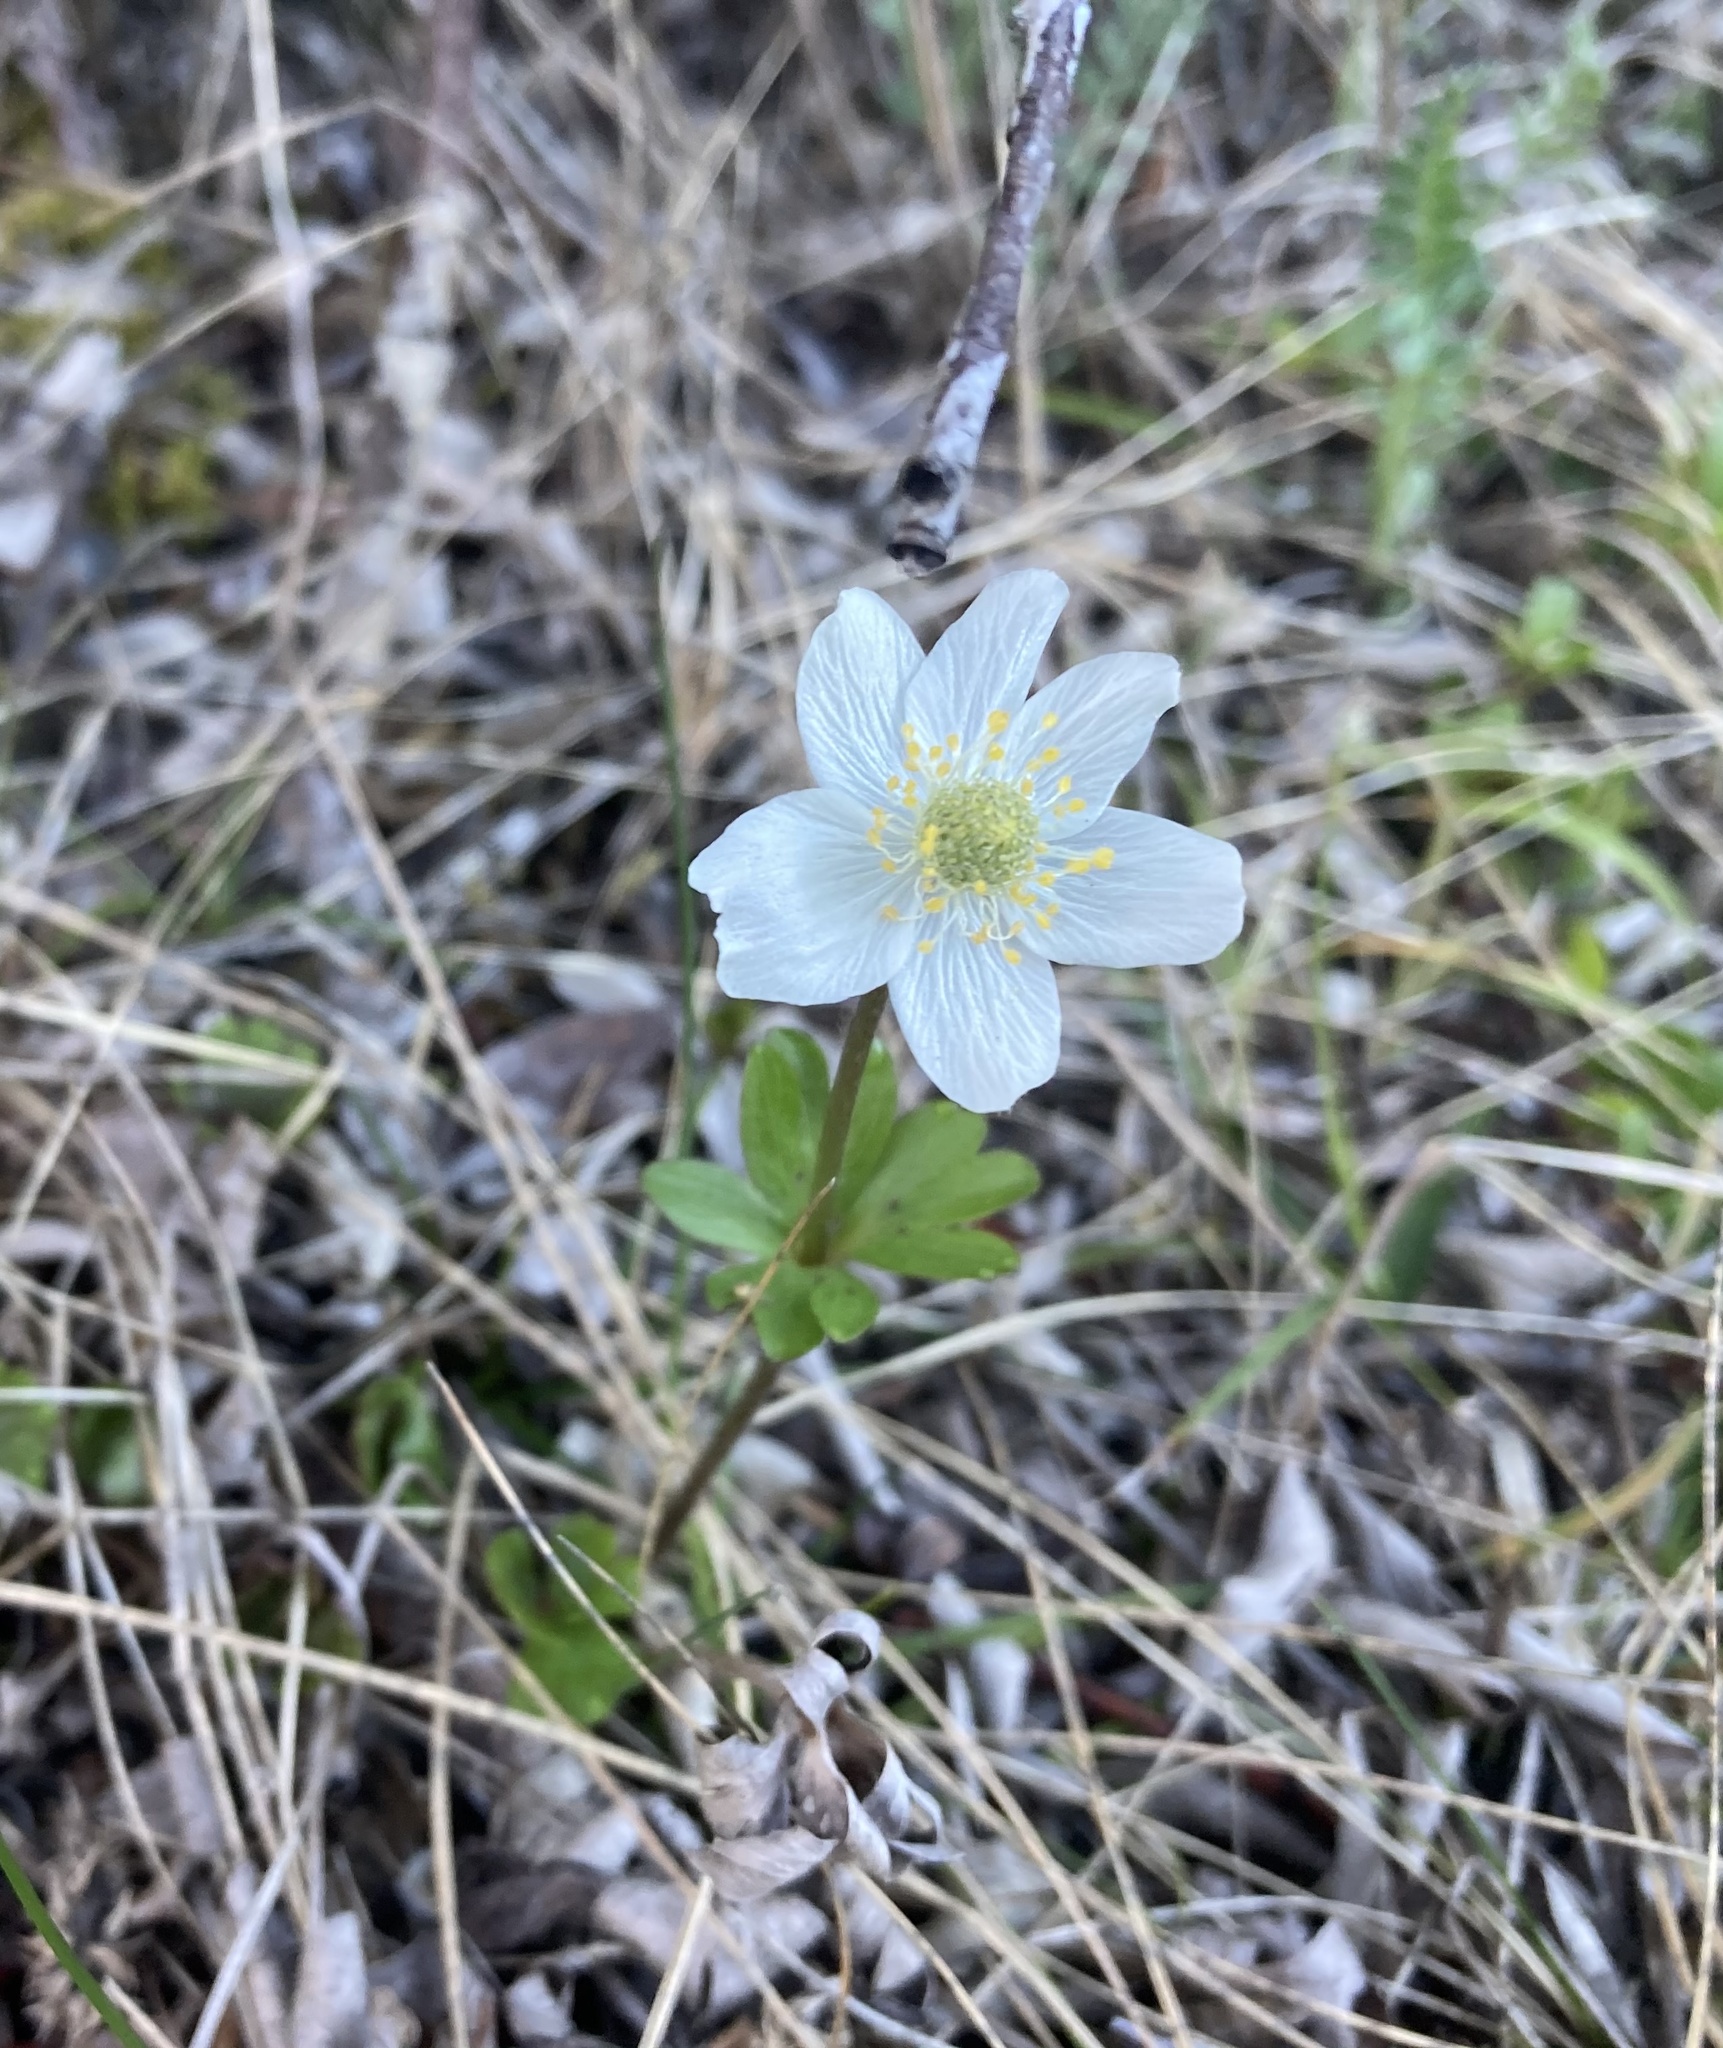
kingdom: Plantae
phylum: Tracheophyta
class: Magnoliopsida
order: Ranunculales
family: Ranunculaceae
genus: Anemone
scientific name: Anemone parviflora
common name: Northern anemone
